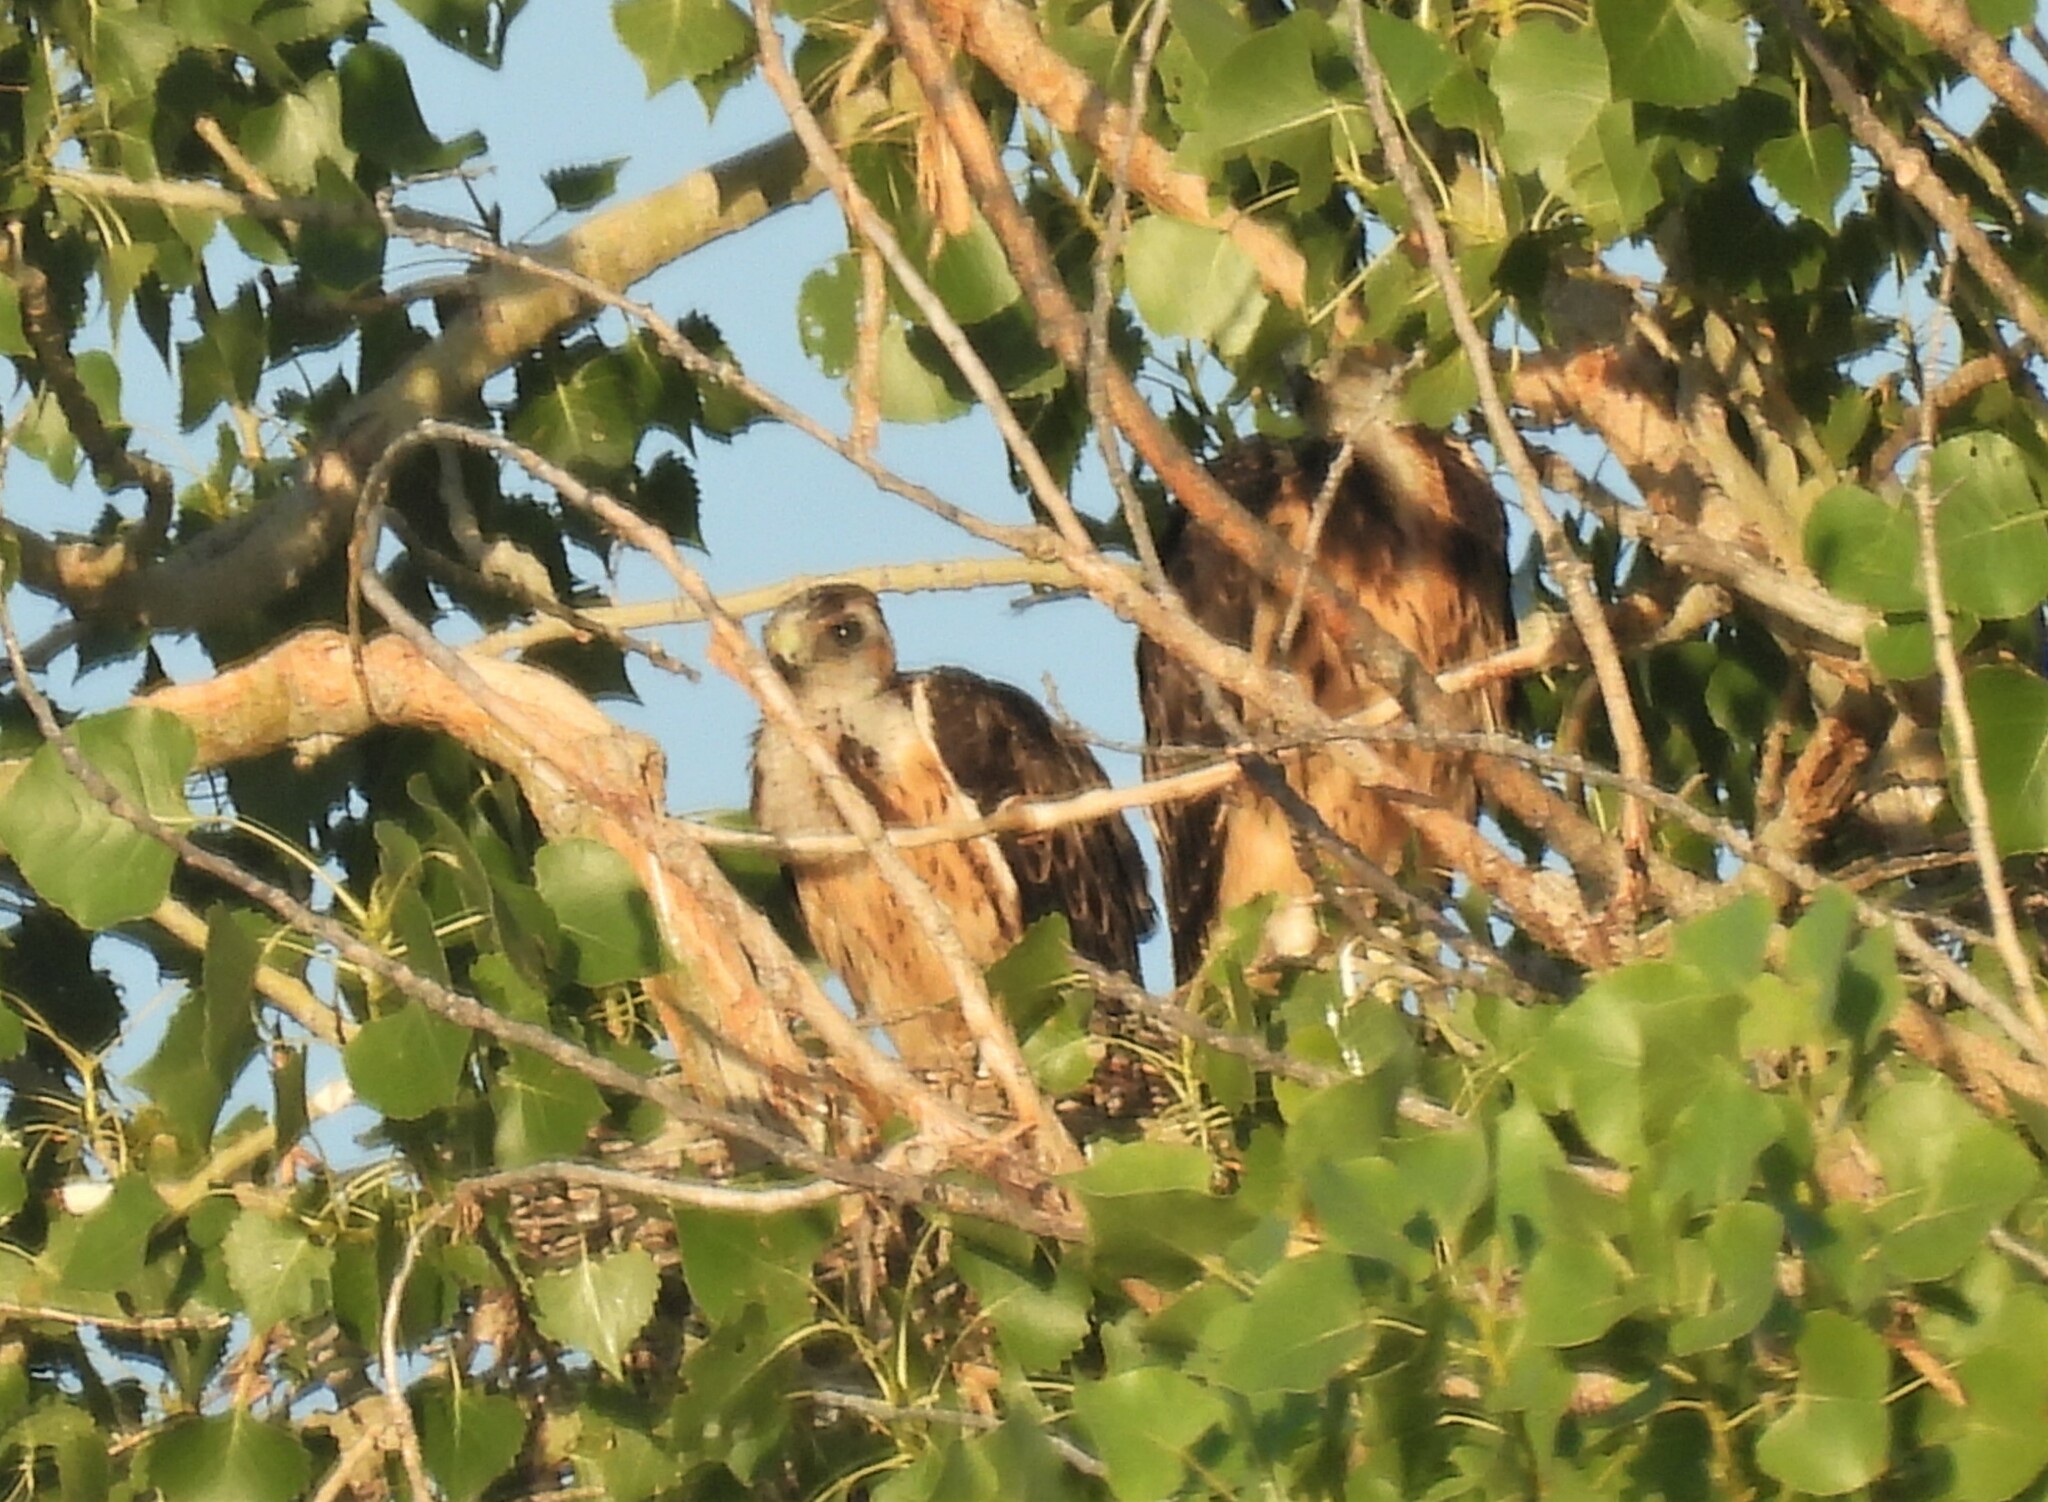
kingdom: Animalia
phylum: Chordata
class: Aves
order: Accipitriformes
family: Accipitridae
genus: Buteo
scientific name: Buteo swainsoni
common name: Swainson's hawk
